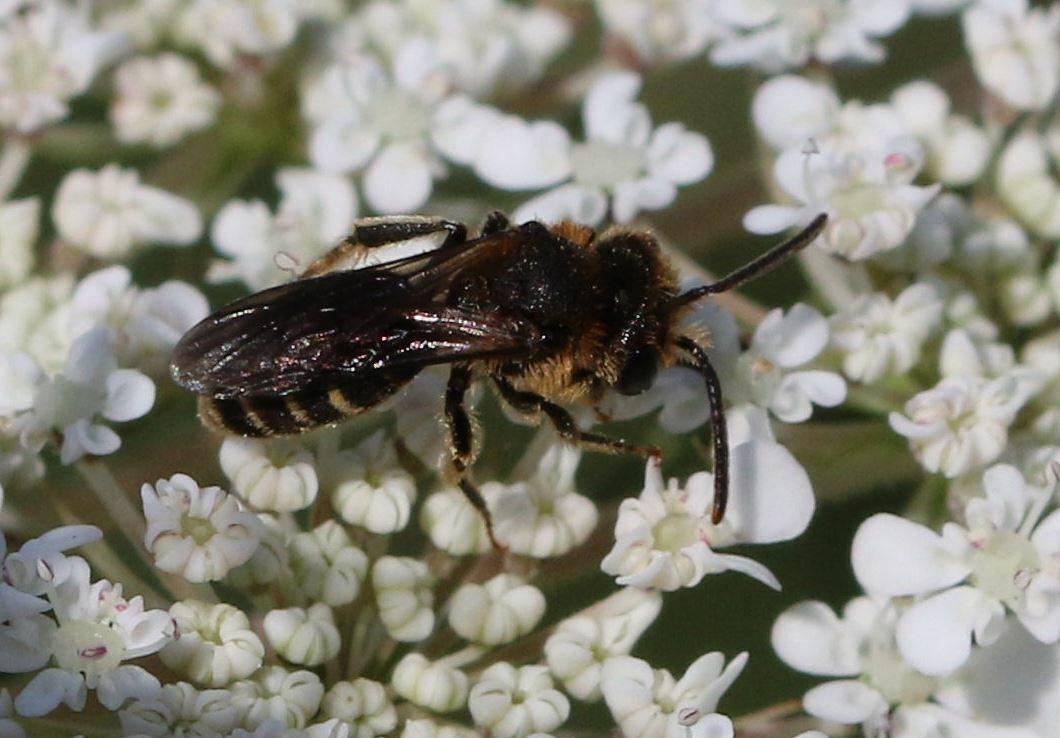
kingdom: Animalia
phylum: Arthropoda
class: Insecta
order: Hymenoptera
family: Andrenidae
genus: Andrena
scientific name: Andrena colletiformis
